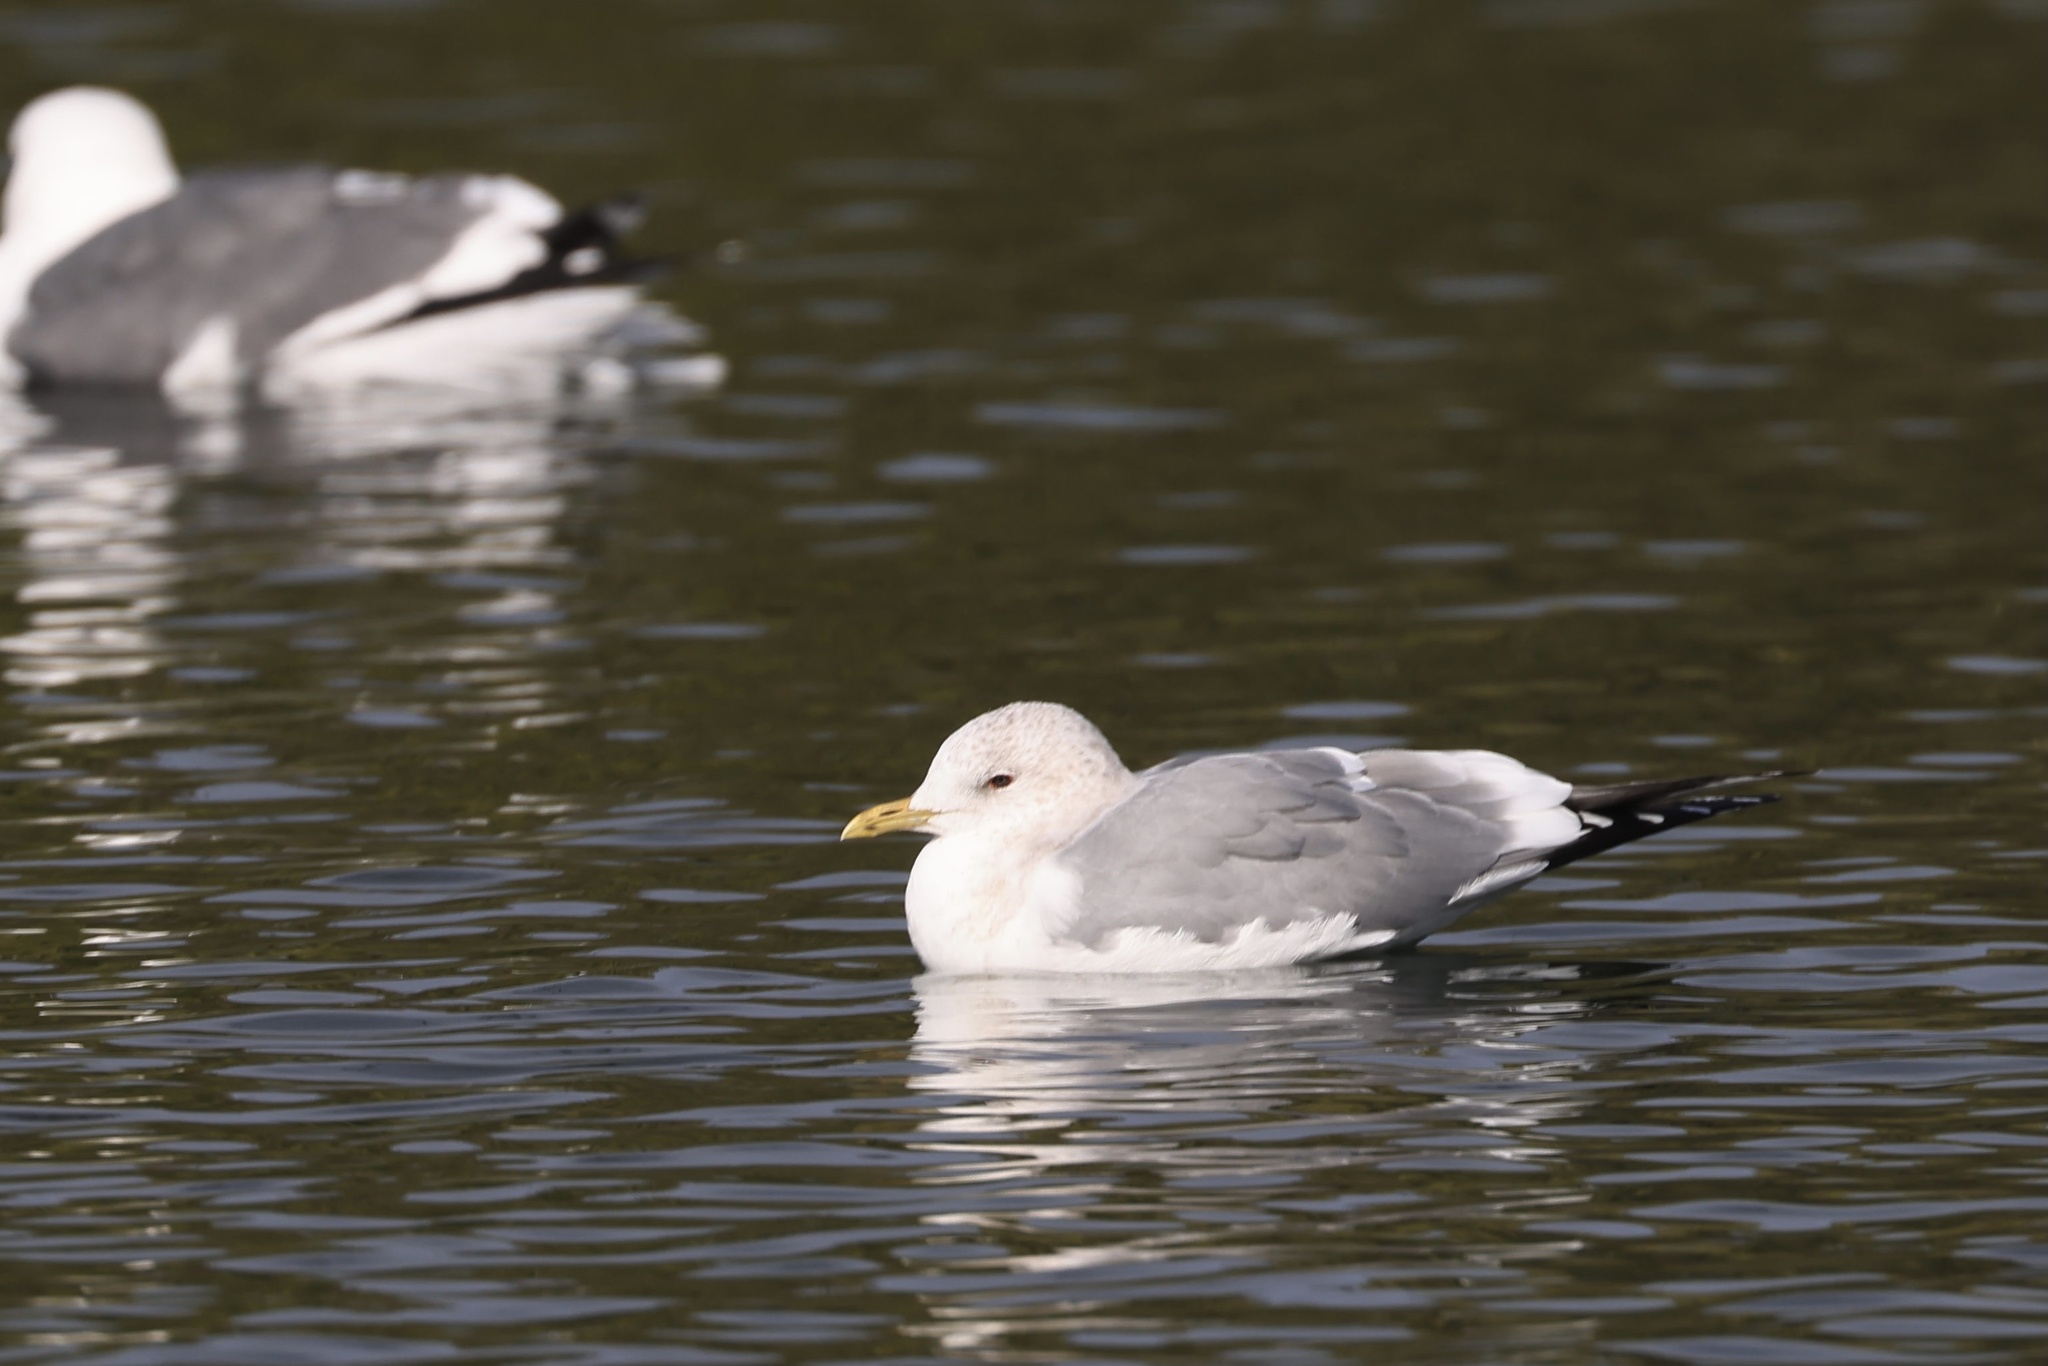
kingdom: Animalia
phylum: Chordata
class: Aves
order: Charadriiformes
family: Laridae
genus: Larus
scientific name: Larus brachyrhynchus
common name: Short-billed gull
